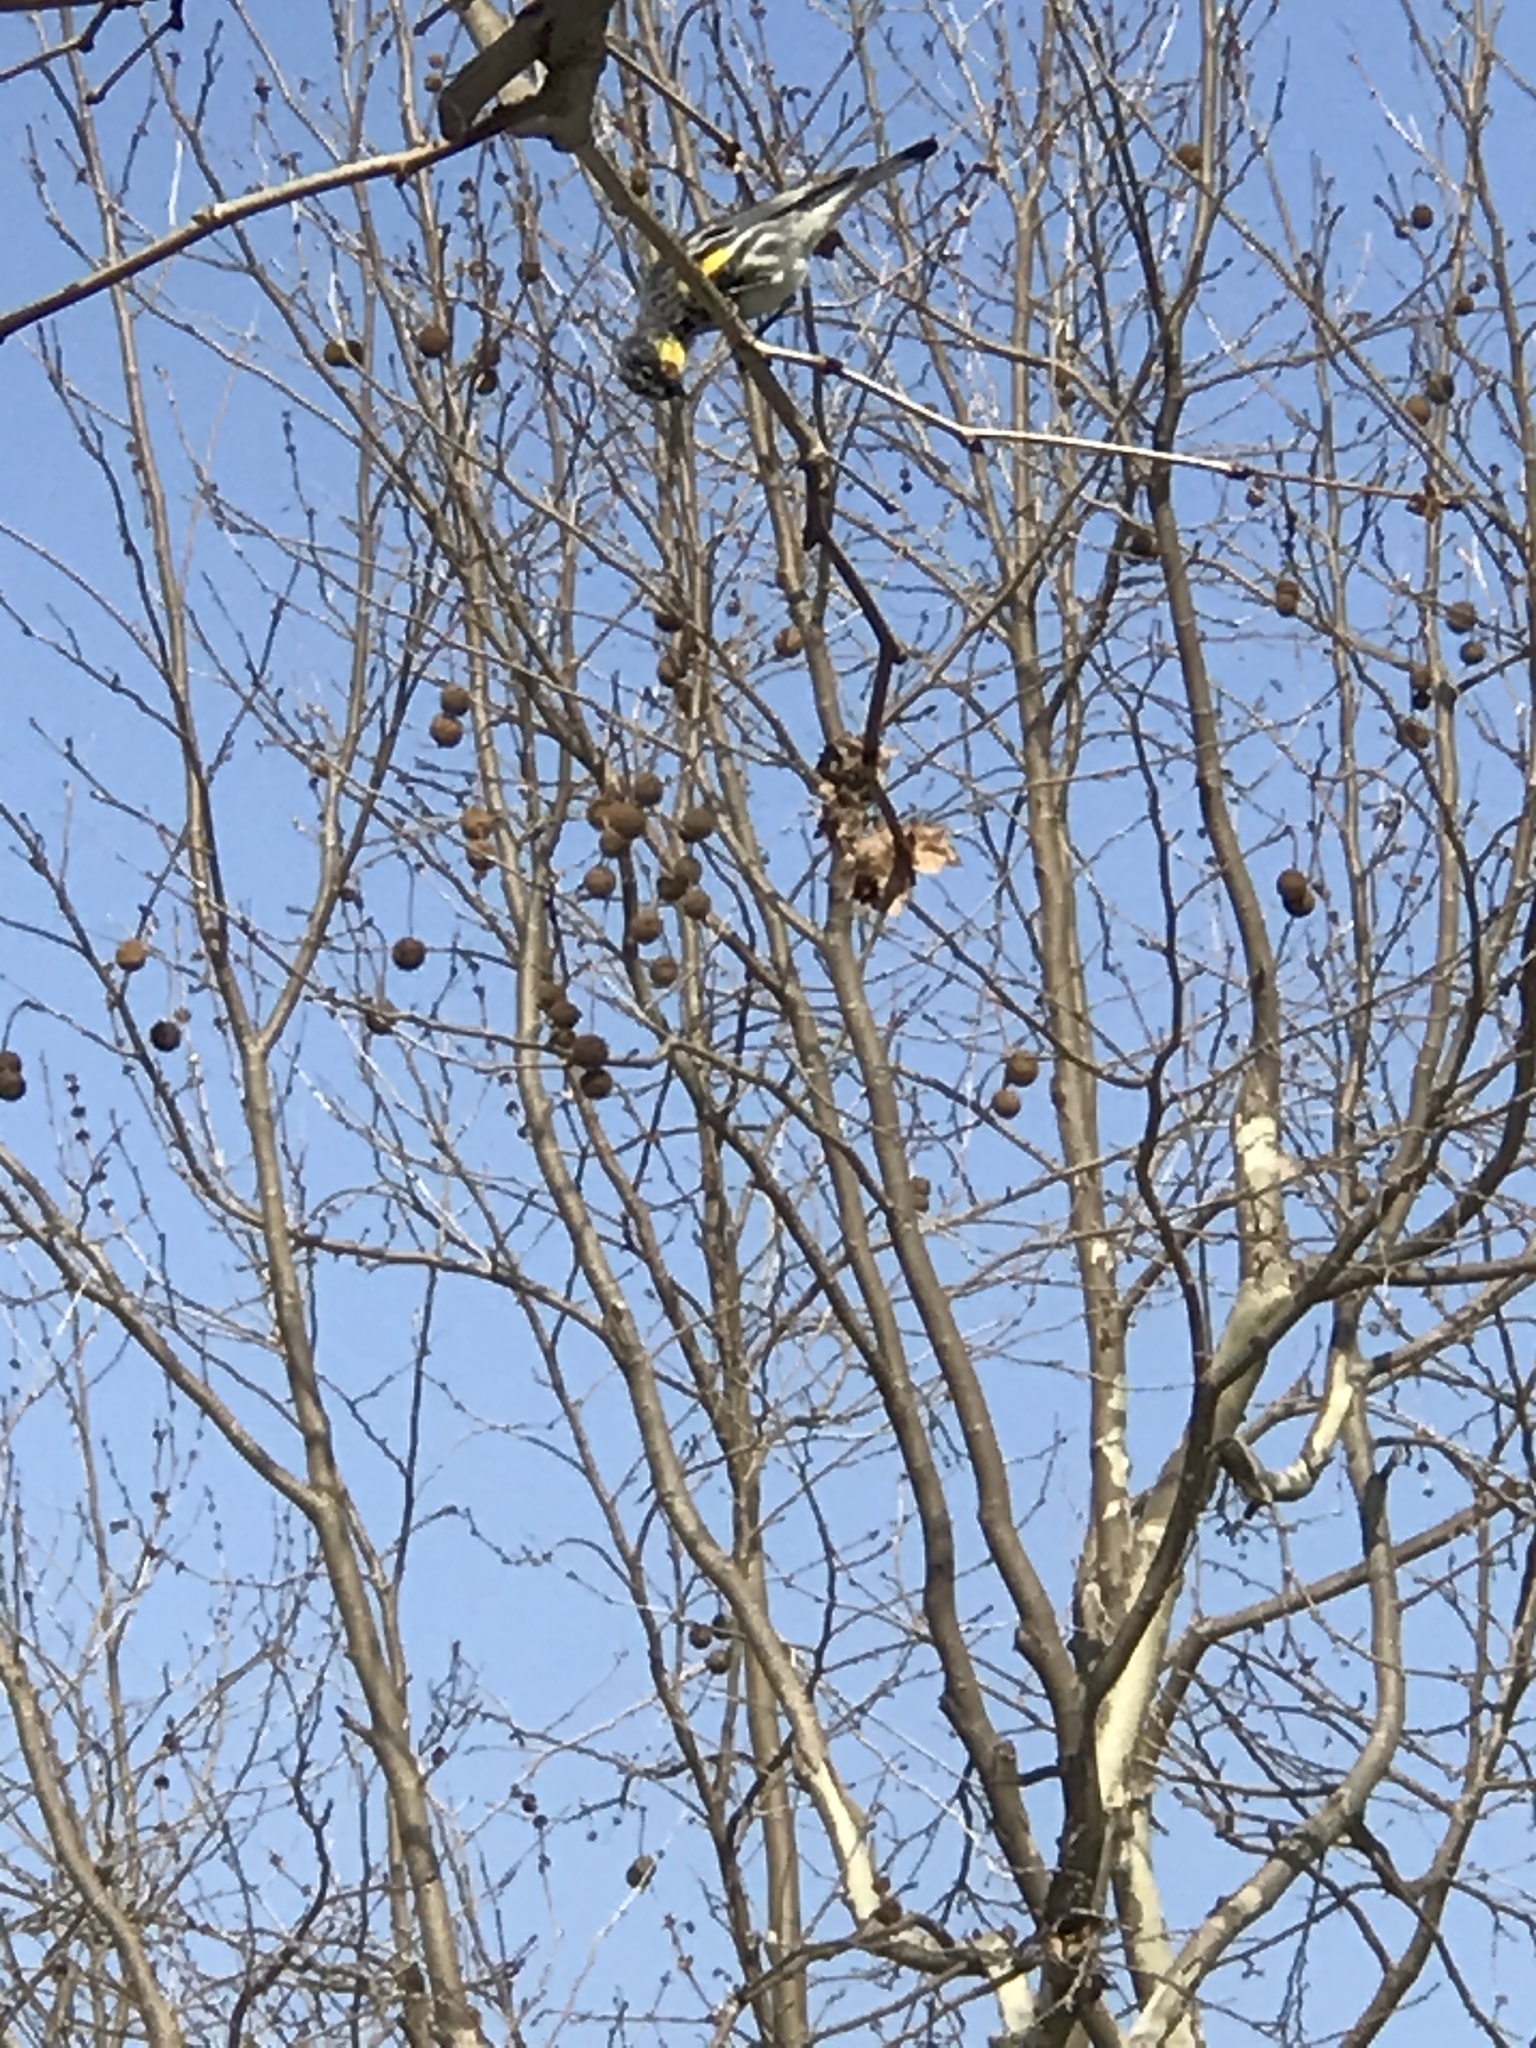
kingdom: Animalia
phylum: Chordata
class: Aves
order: Passeriformes
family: Parulidae
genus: Setophaga
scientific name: Setophaga coronata
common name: Myrtle warbler
